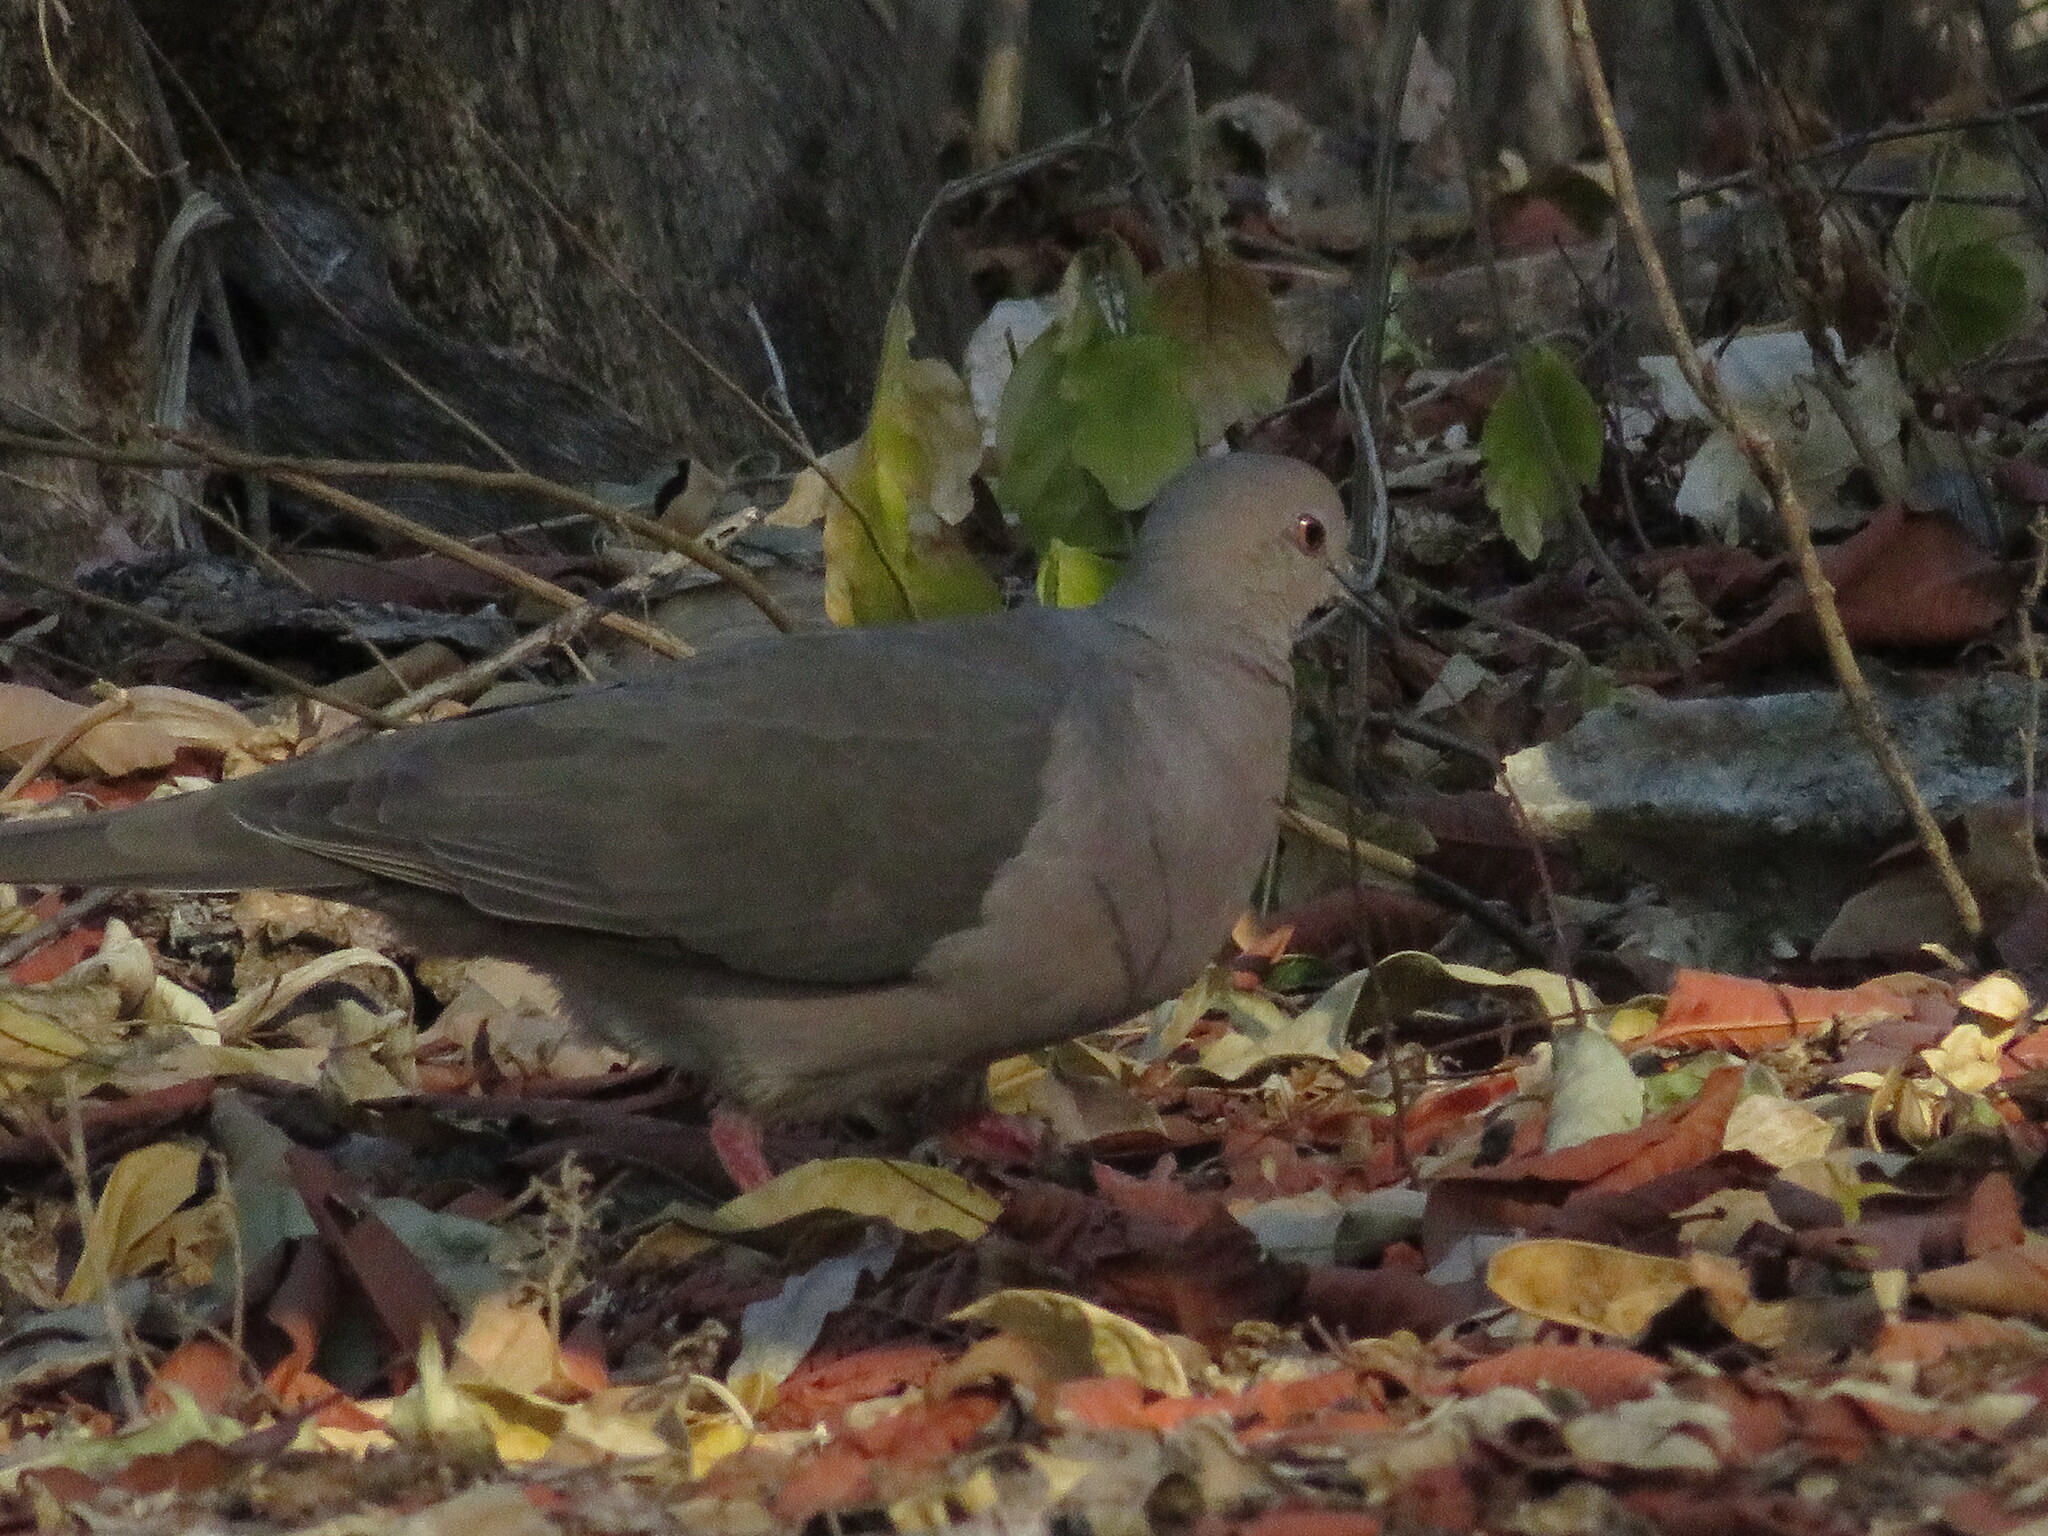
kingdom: Animalia
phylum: Chordata
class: Aves
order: Columbiformes
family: Columbidae
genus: Leptotila
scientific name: Leptotila verreauxi
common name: White-tipped dove
